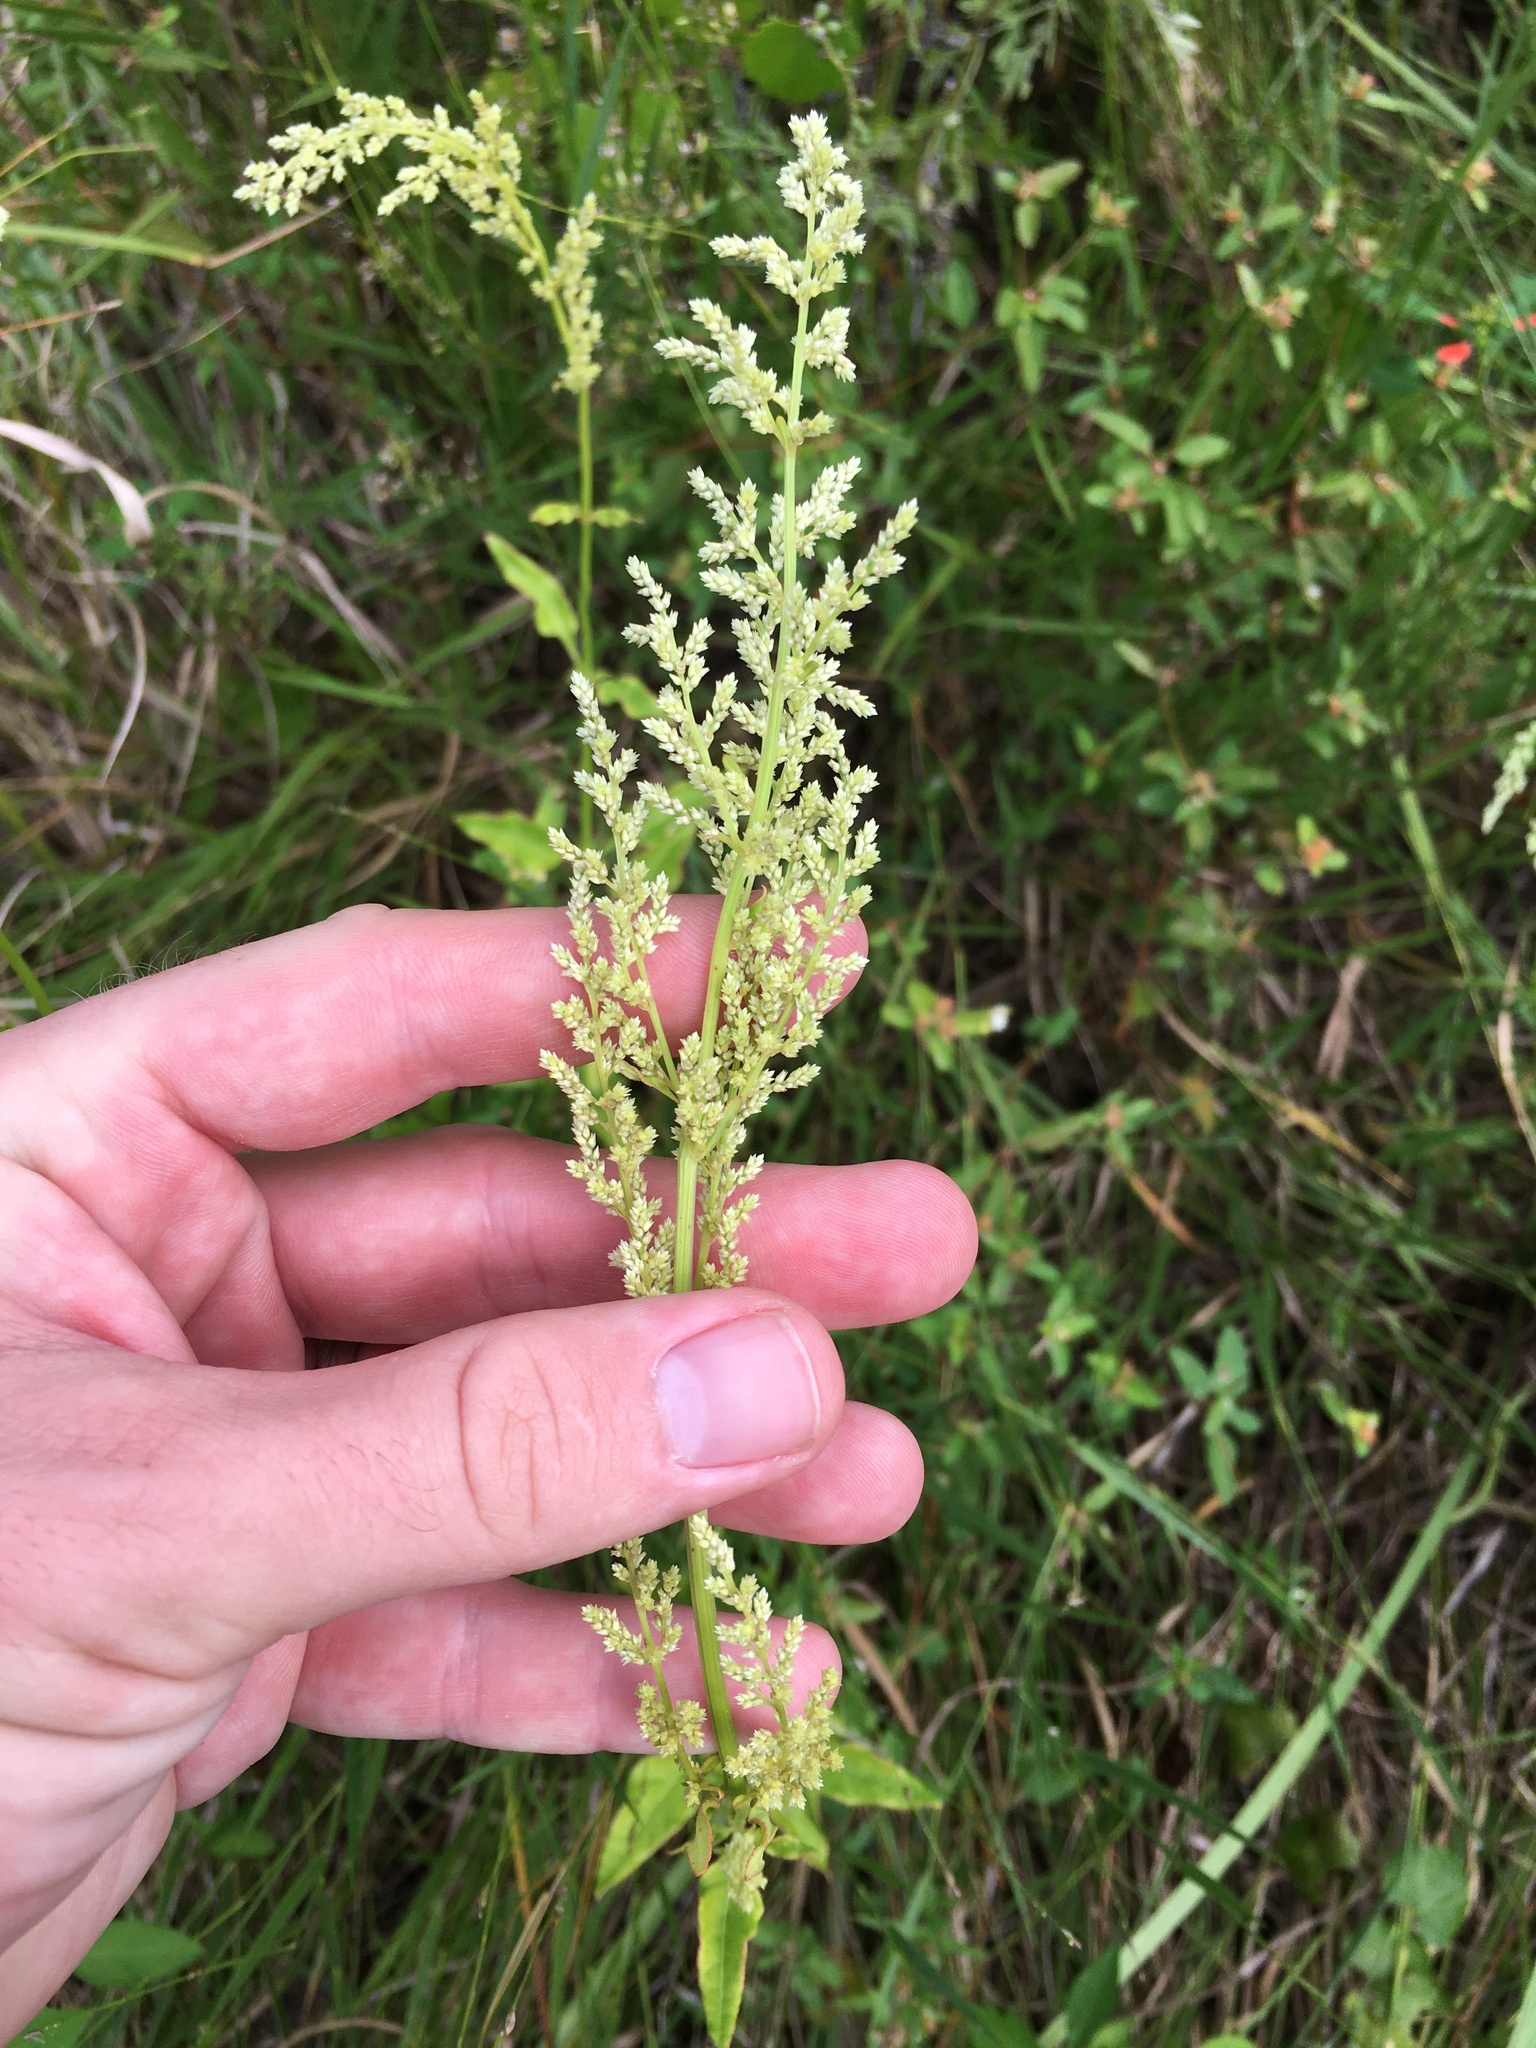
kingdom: Plantae
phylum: Tracheophyta
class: Magnoliopsida
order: Caryophyllales
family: Amaranthaceae
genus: Iresine
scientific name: Iresine diffusa
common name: Juba's-bush
